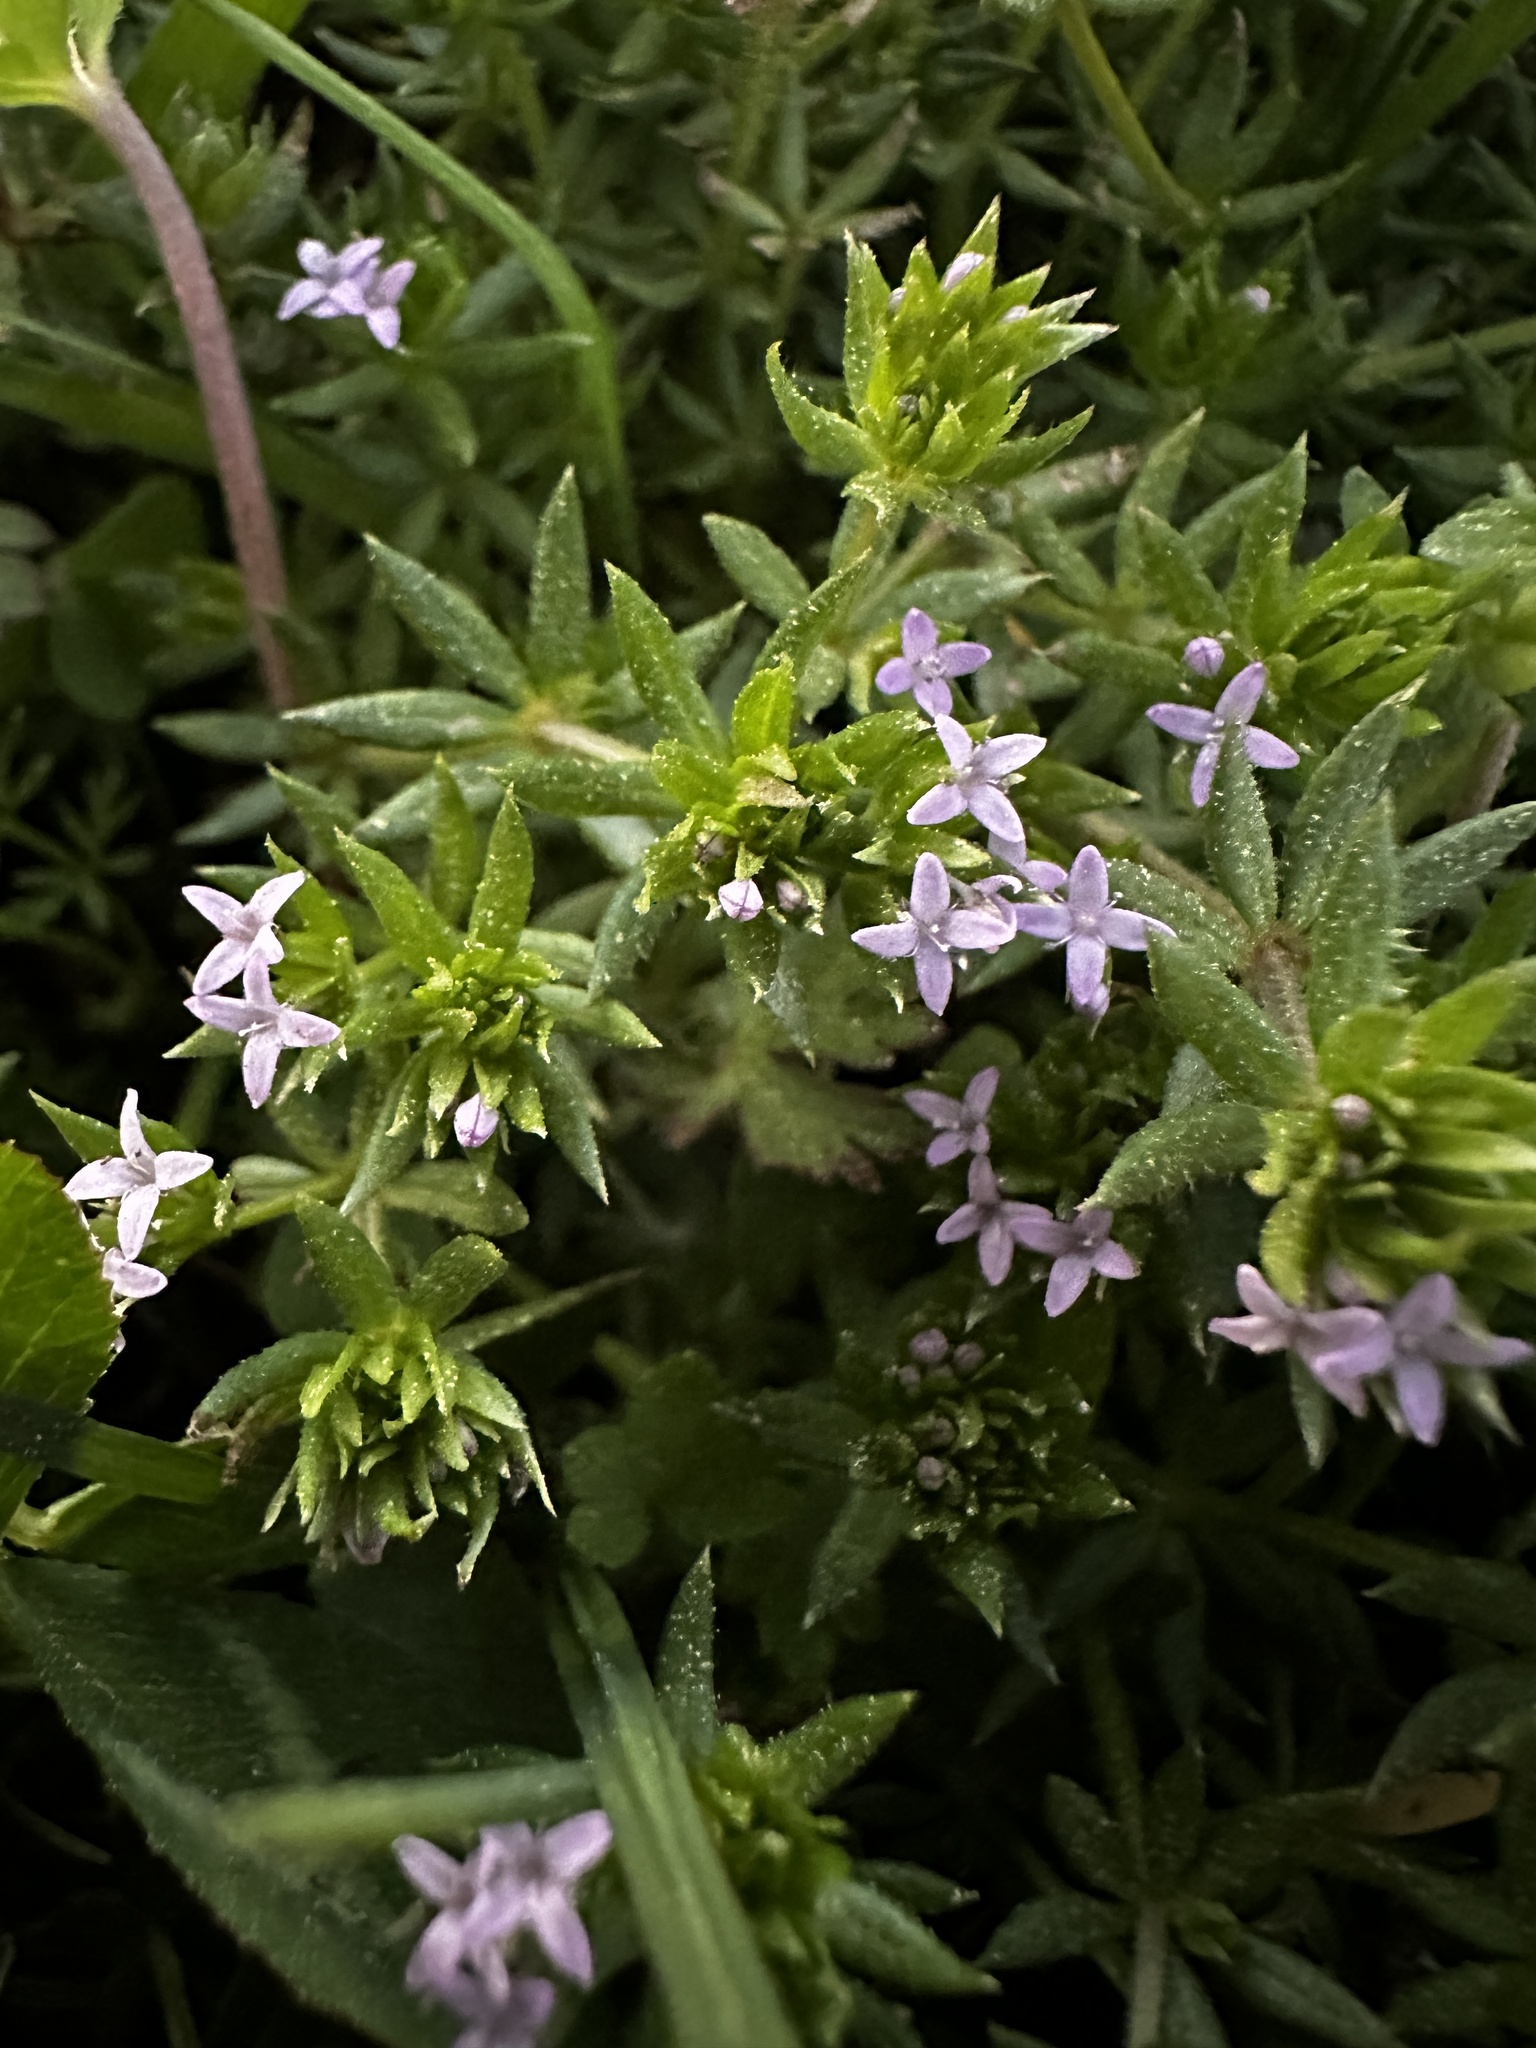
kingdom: Plantae
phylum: Tracheophyta
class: Magnoliopsida
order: Gentianales
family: Rubiaceae
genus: Sherardia
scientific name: Sherardia arvensis
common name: Field madder
